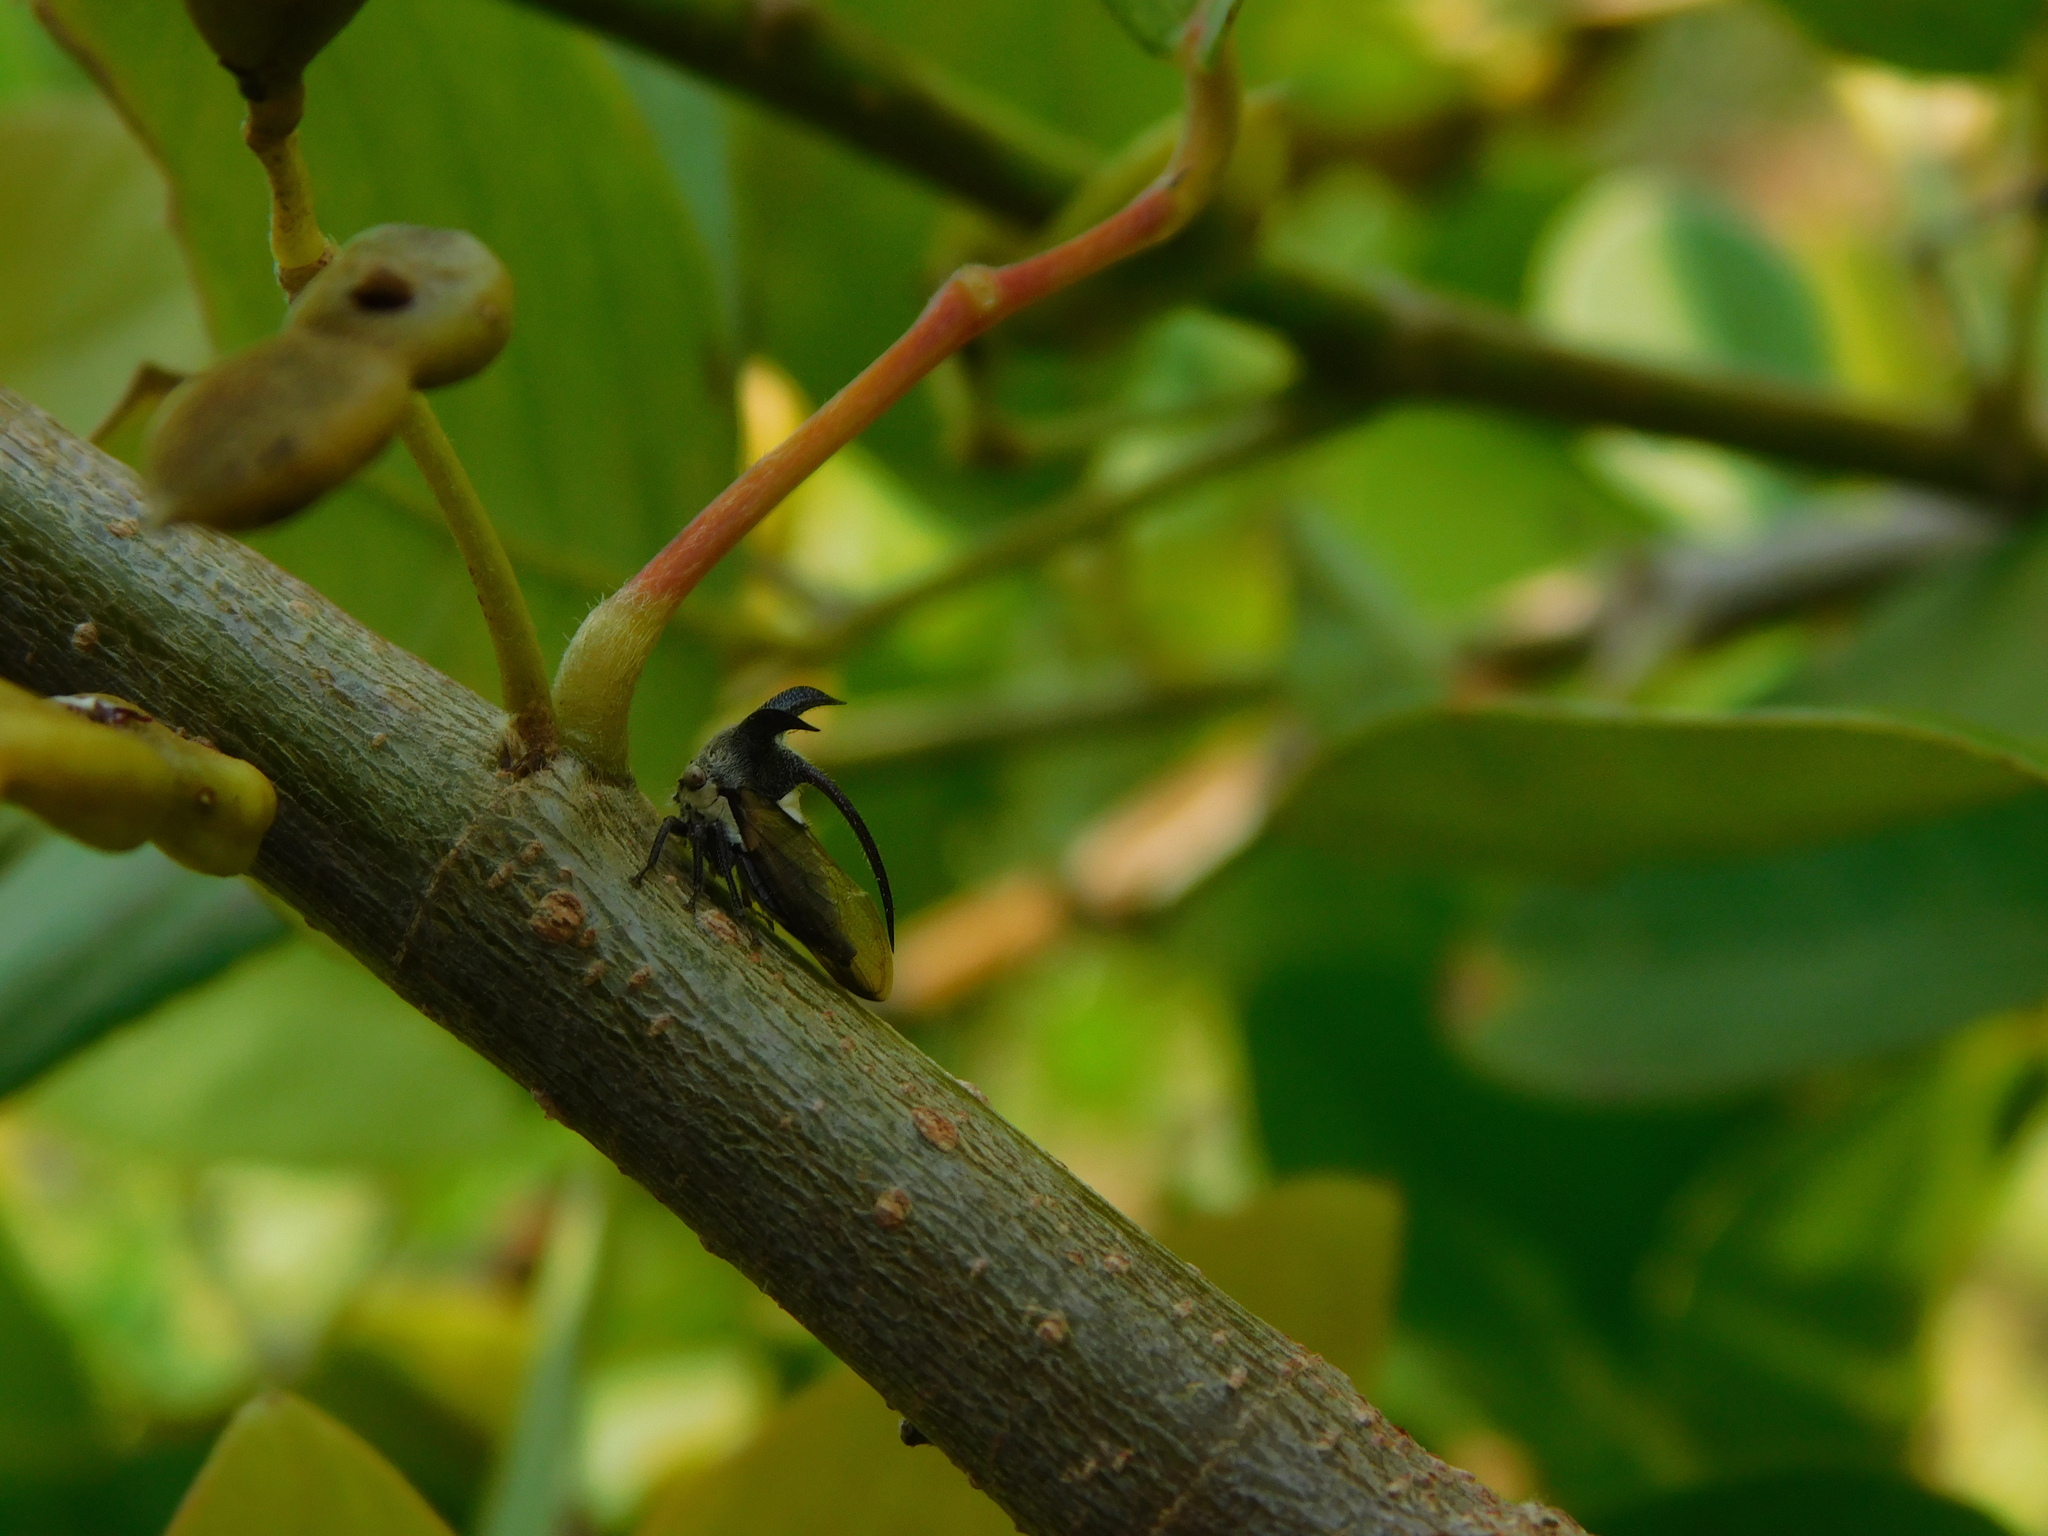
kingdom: Animalia
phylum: Arthropoda
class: Insecta
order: Hemiptera
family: Membracidae
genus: Leptocentrus
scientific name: Leptocentrus taurus
